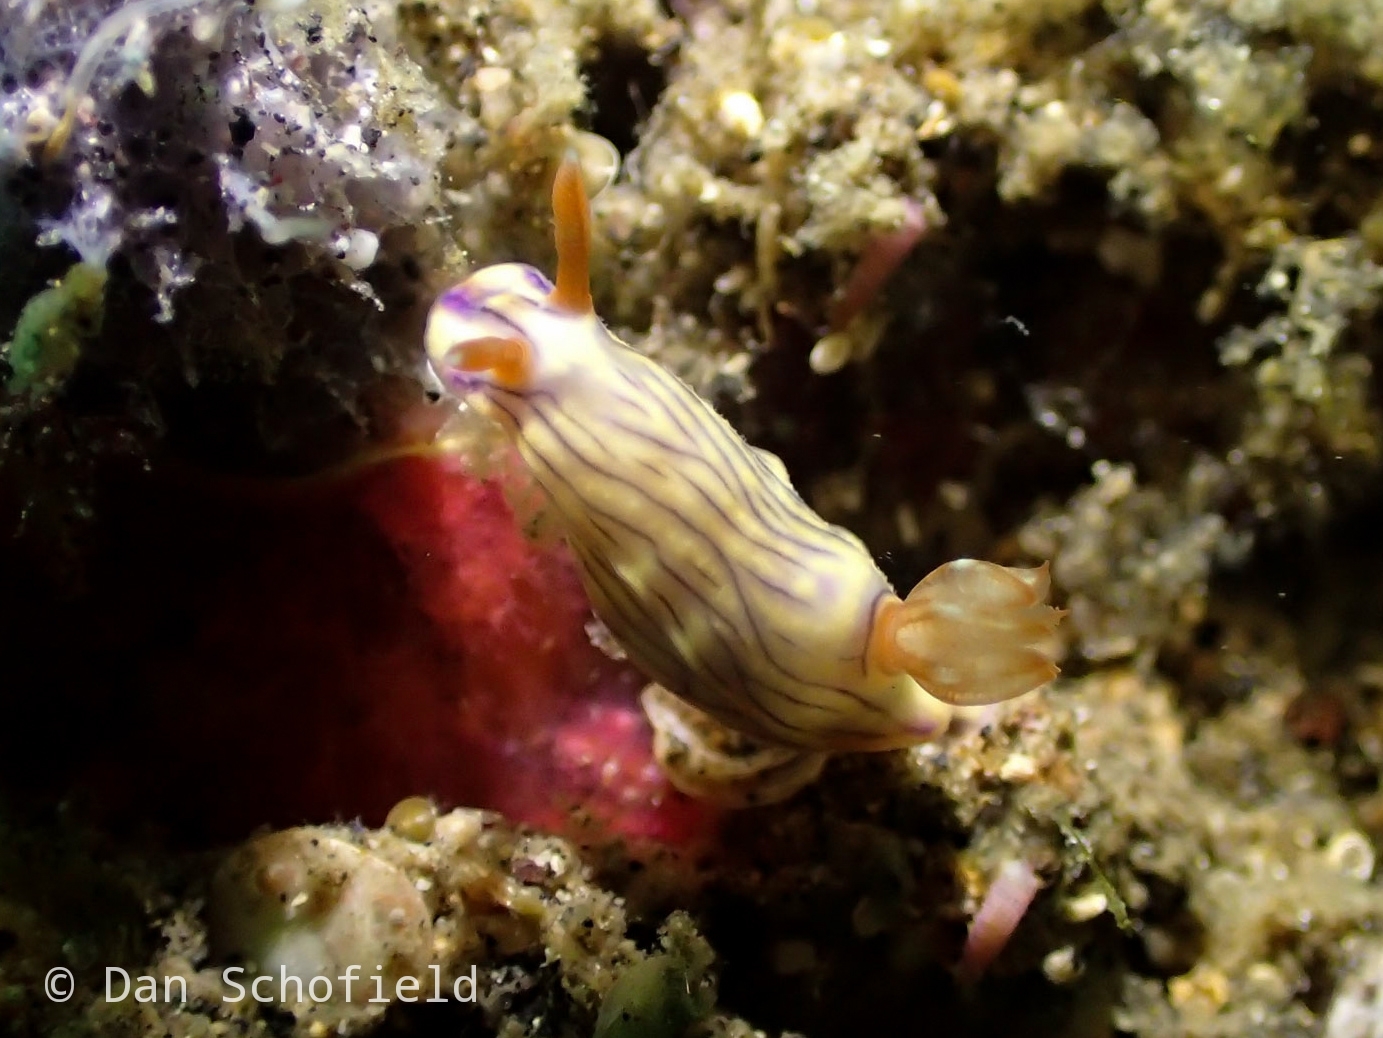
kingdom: Animalia
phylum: Mollusca
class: Gastropoda
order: Nudibranchia
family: Chromodorididae
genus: Hypselodoris
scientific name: Hypselodoris zephyra
